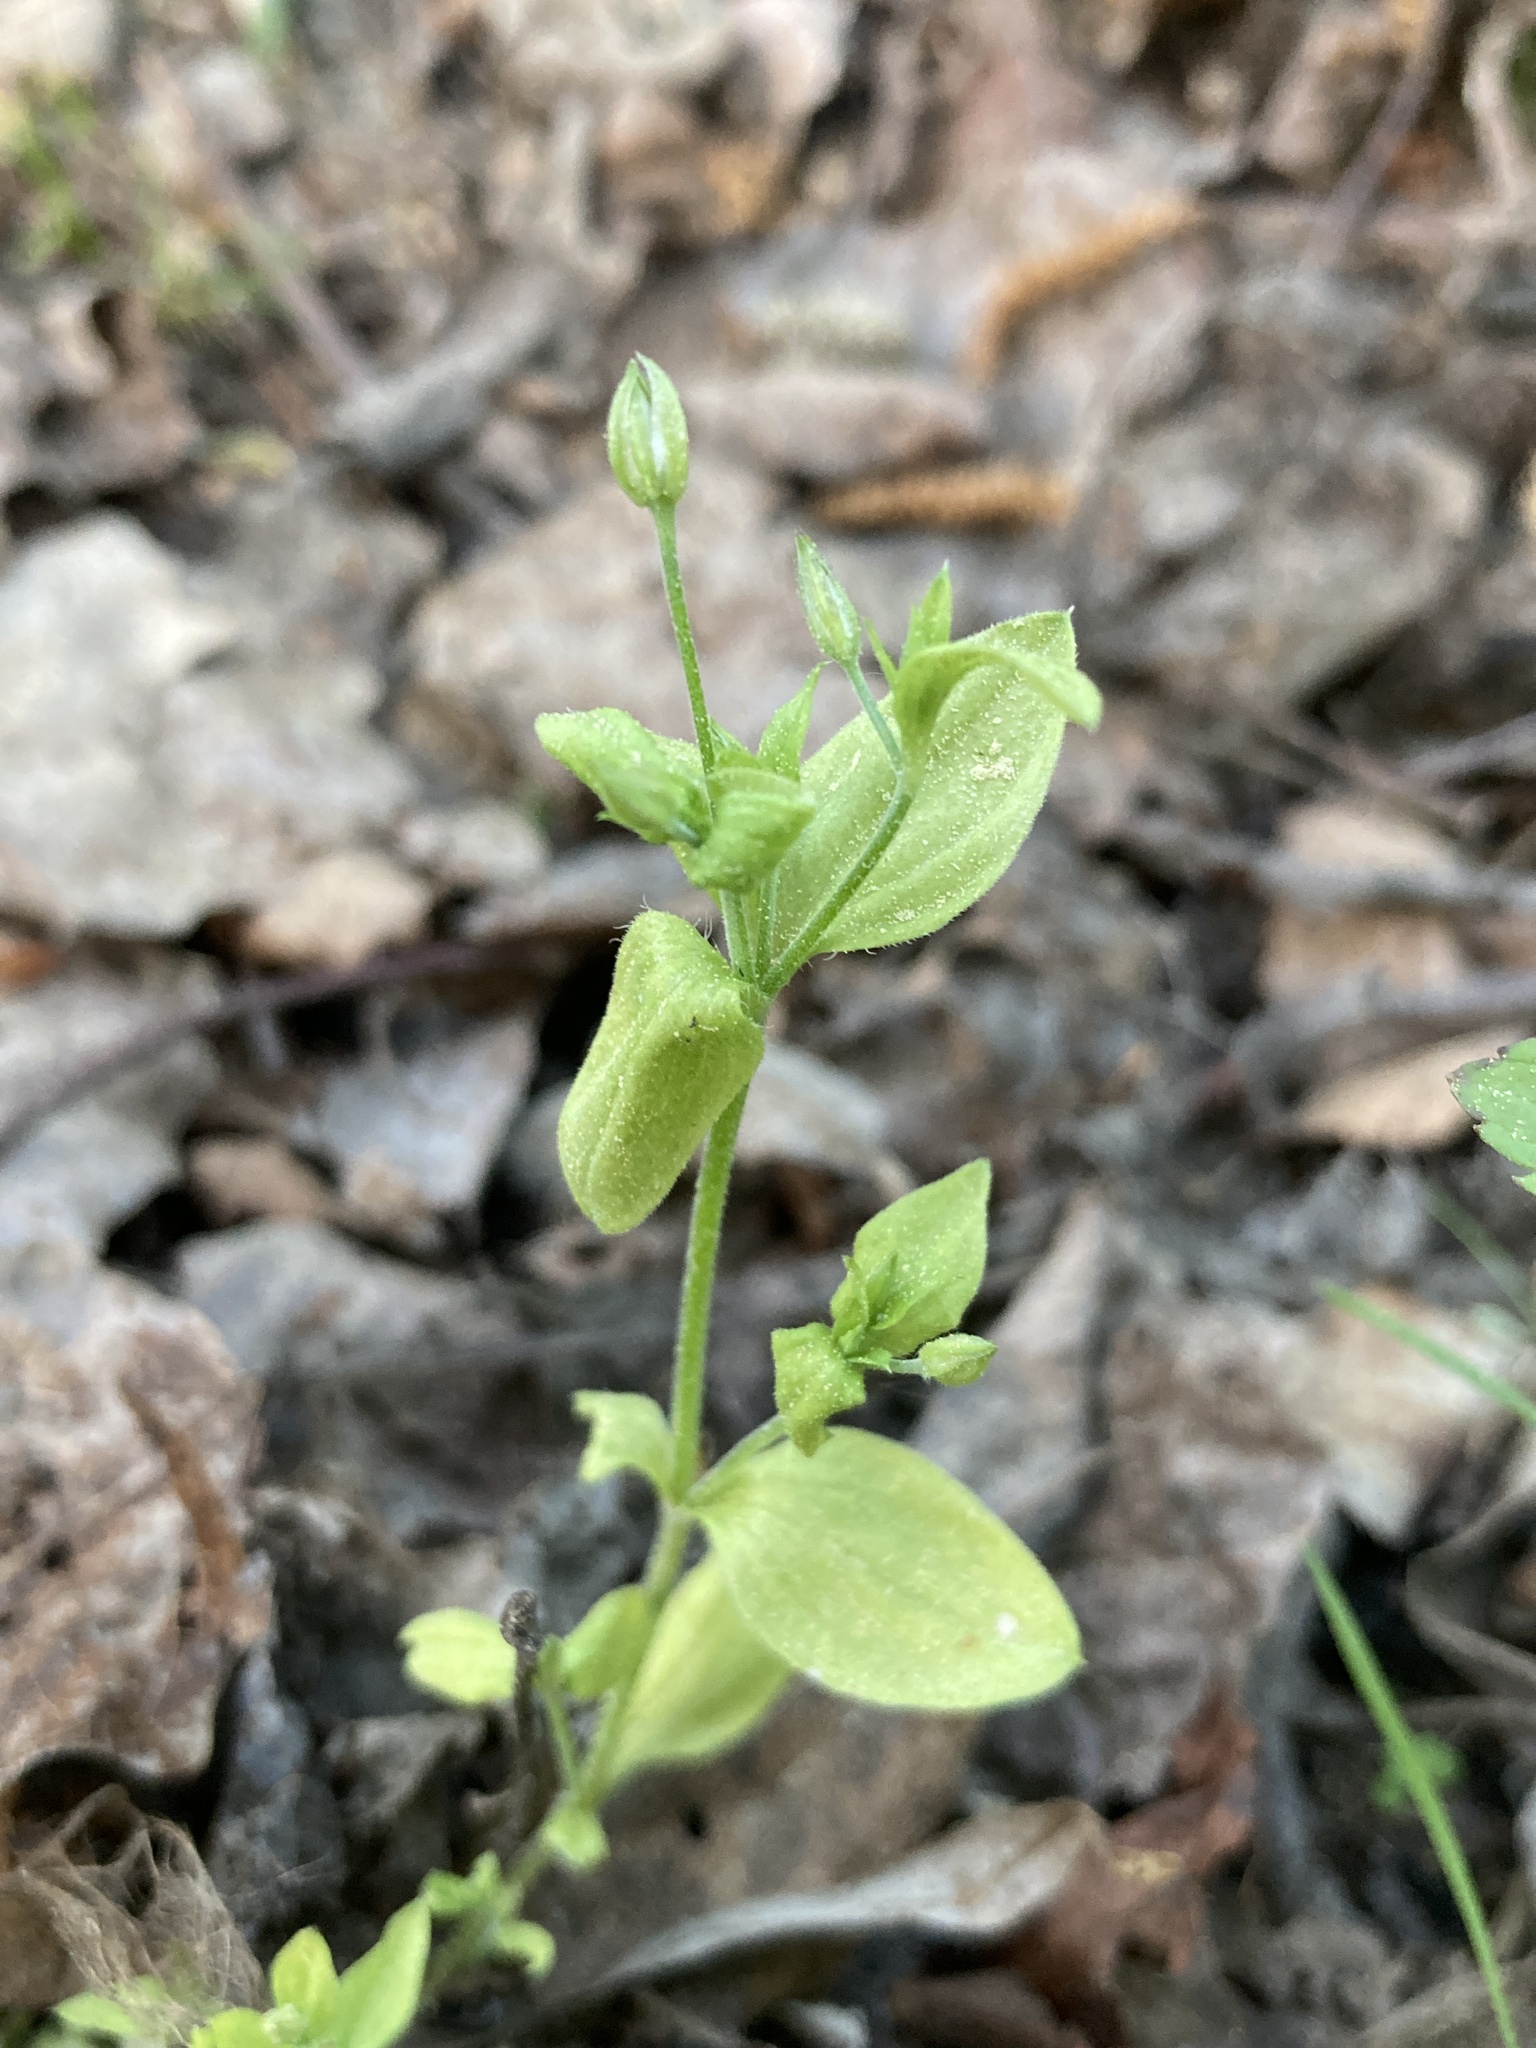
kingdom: Plantae
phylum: Tracheophyta
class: Magnoliopsida
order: Caryophyllales
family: Caryophyllaceae
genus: Moehringia
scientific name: Moehringia trinervia
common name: Three-nerved sandwort
